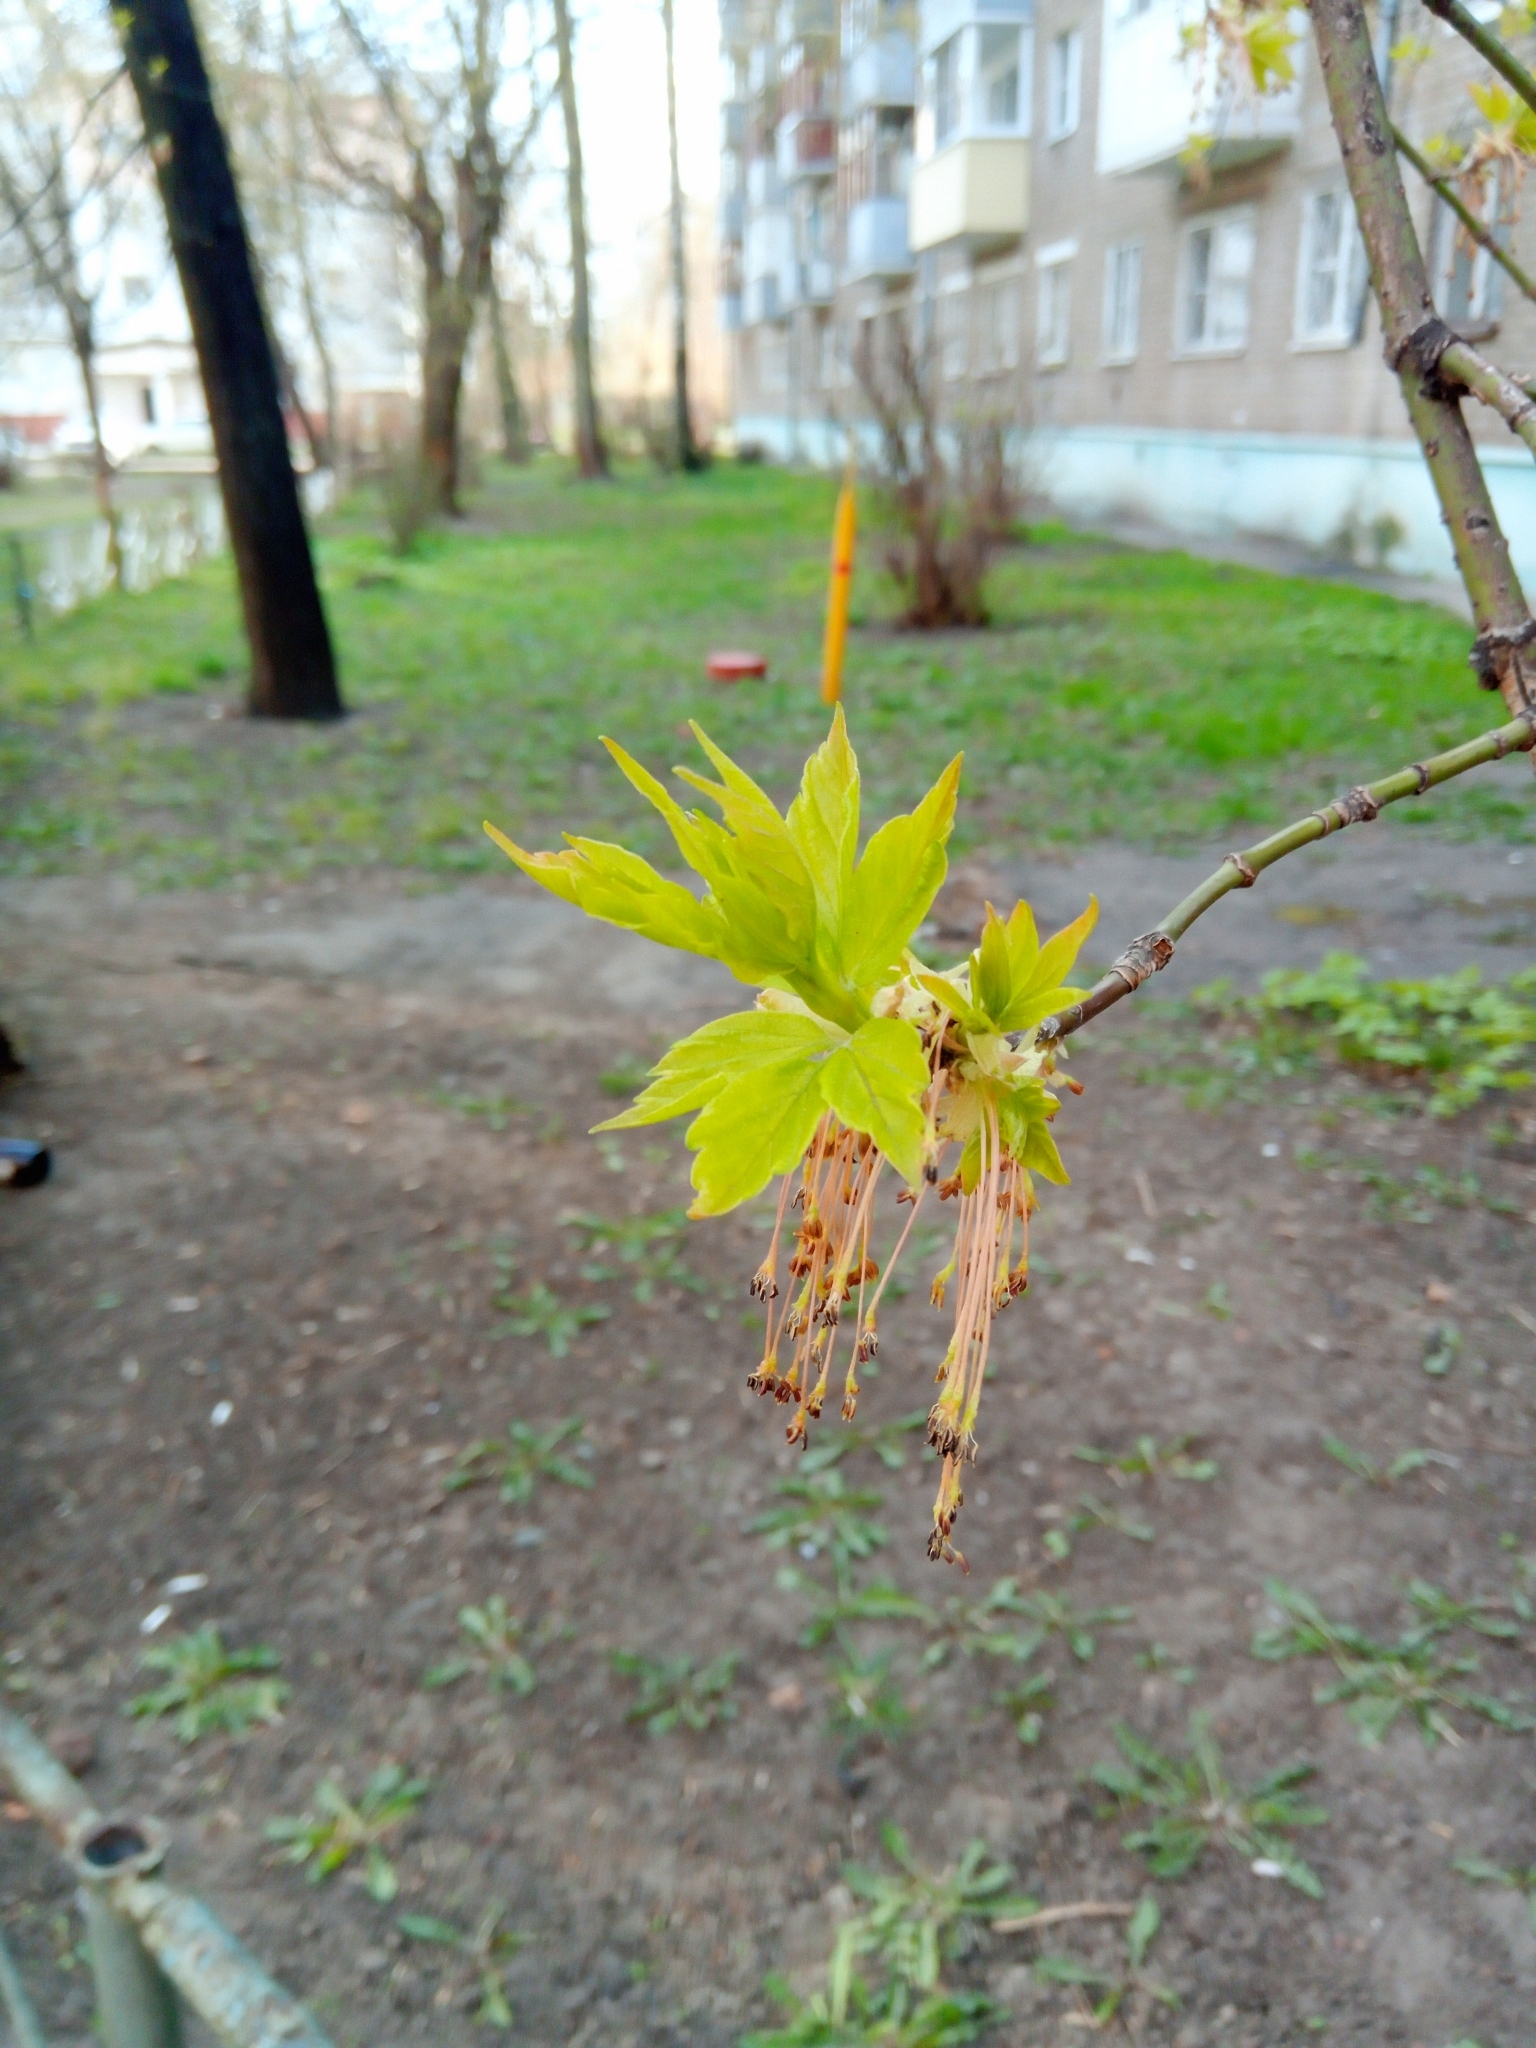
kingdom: Plantae
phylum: Tracheophyta
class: Magnoliopsida
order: Sapindales
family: Sapindaceae
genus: Acer
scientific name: Acer negundo
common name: Ashleaf maple
